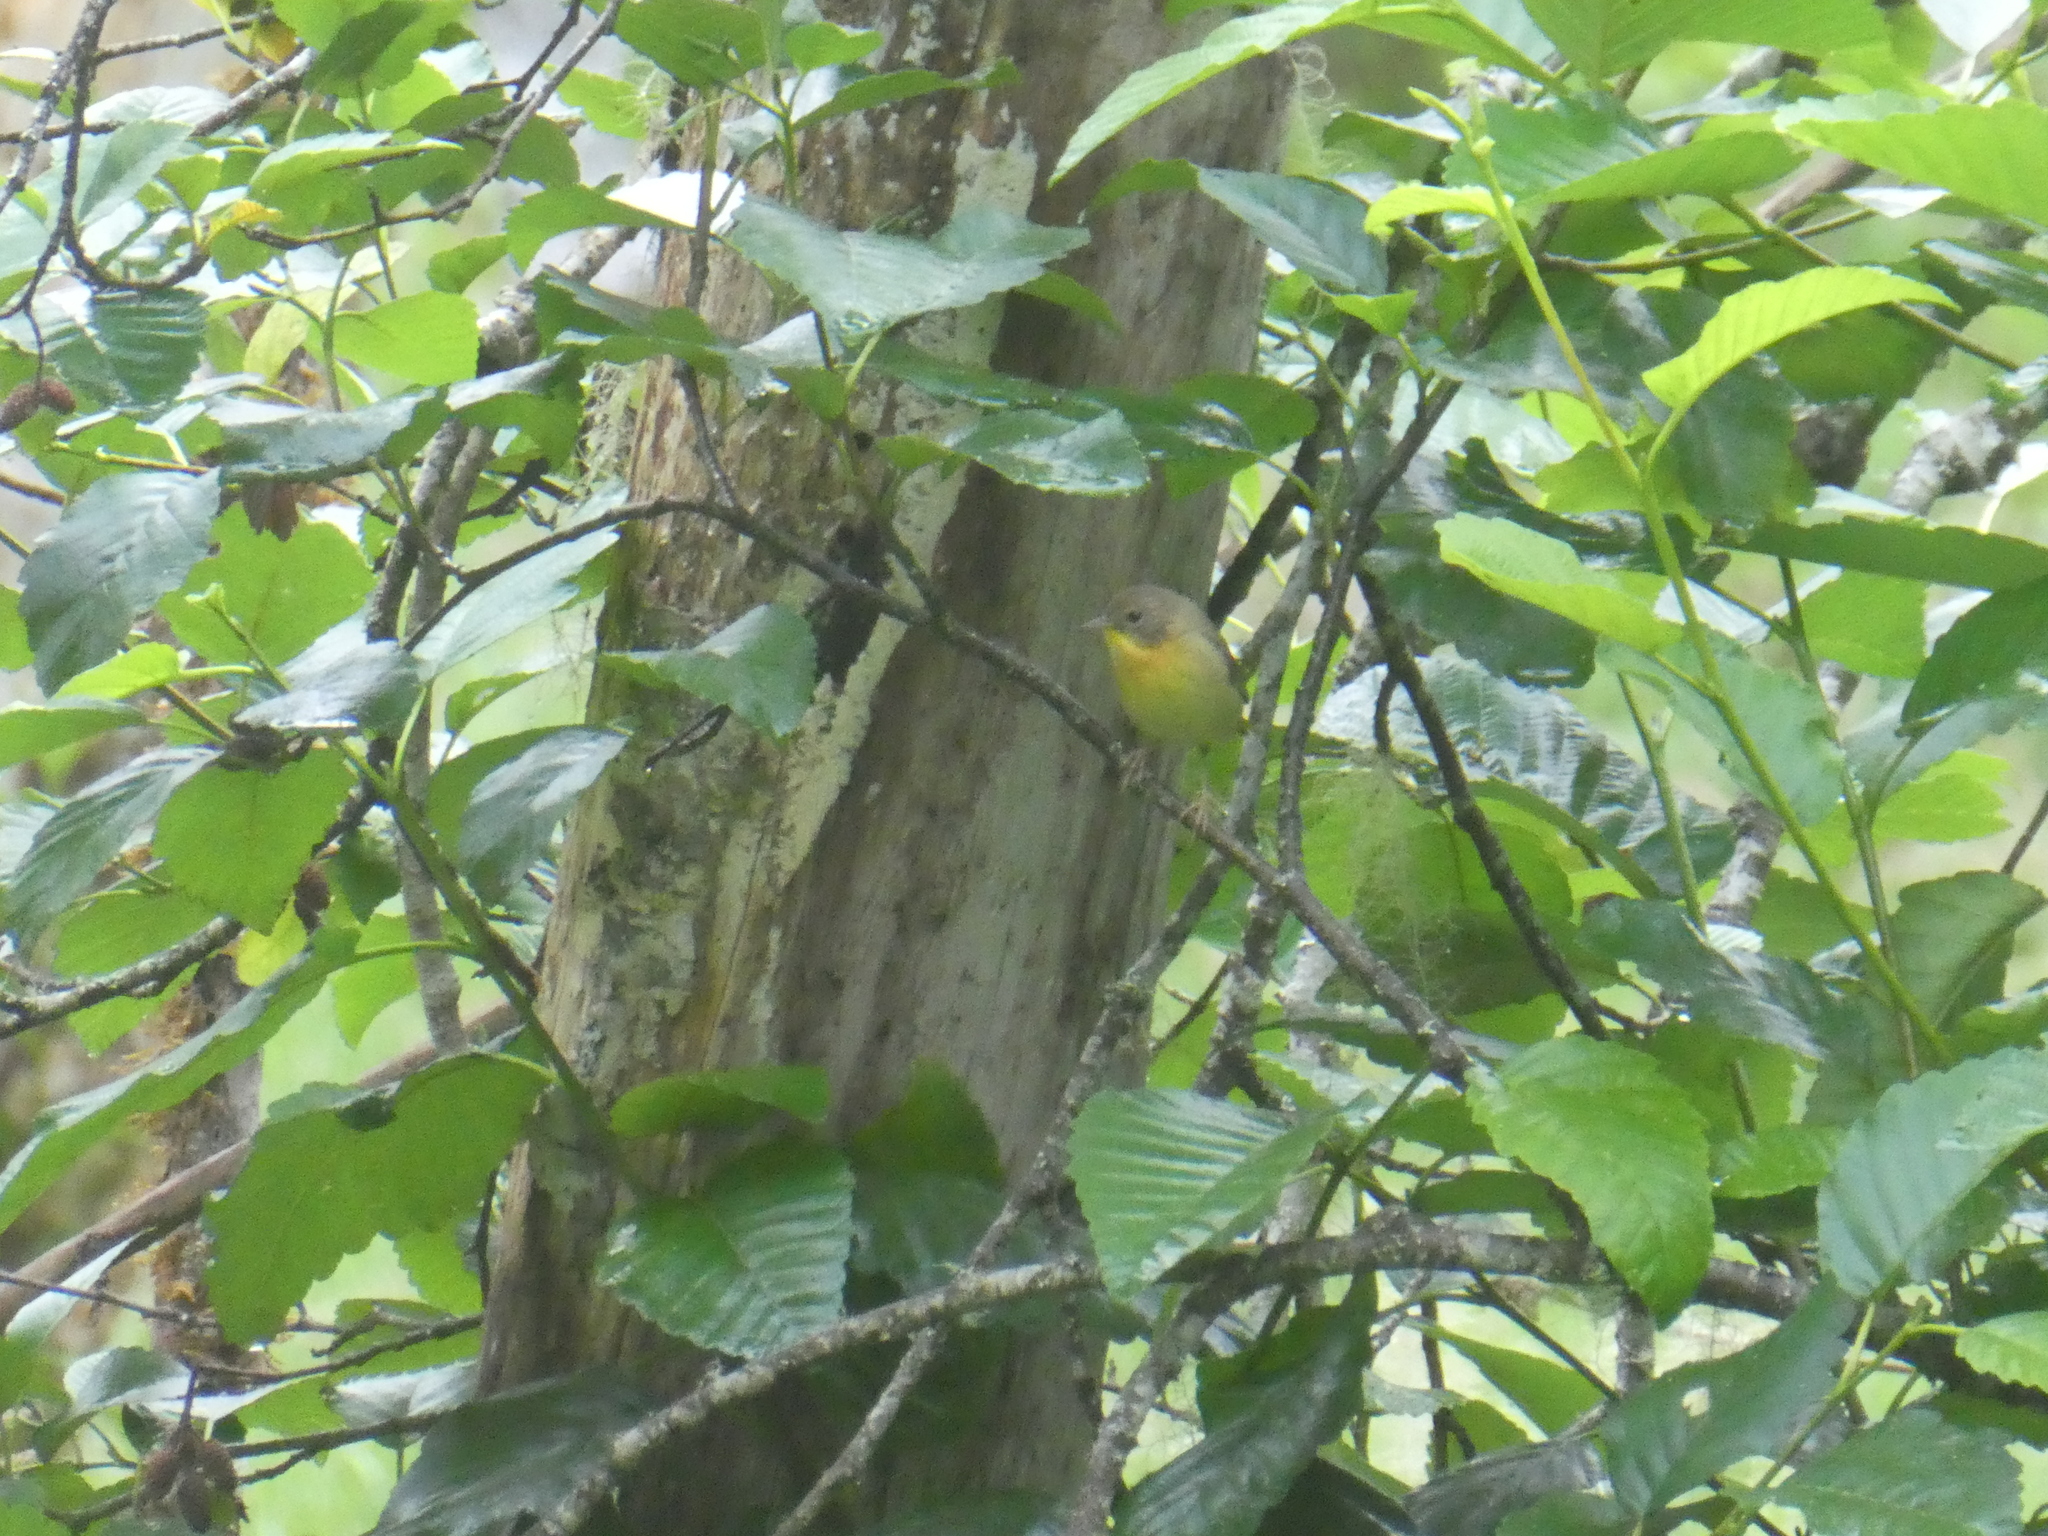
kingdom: Animalia
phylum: Chordata
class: Aves
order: Passeriformes
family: Parulidae
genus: Geothlypis
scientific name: Geothlypis trichas
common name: Common yellowthroat
